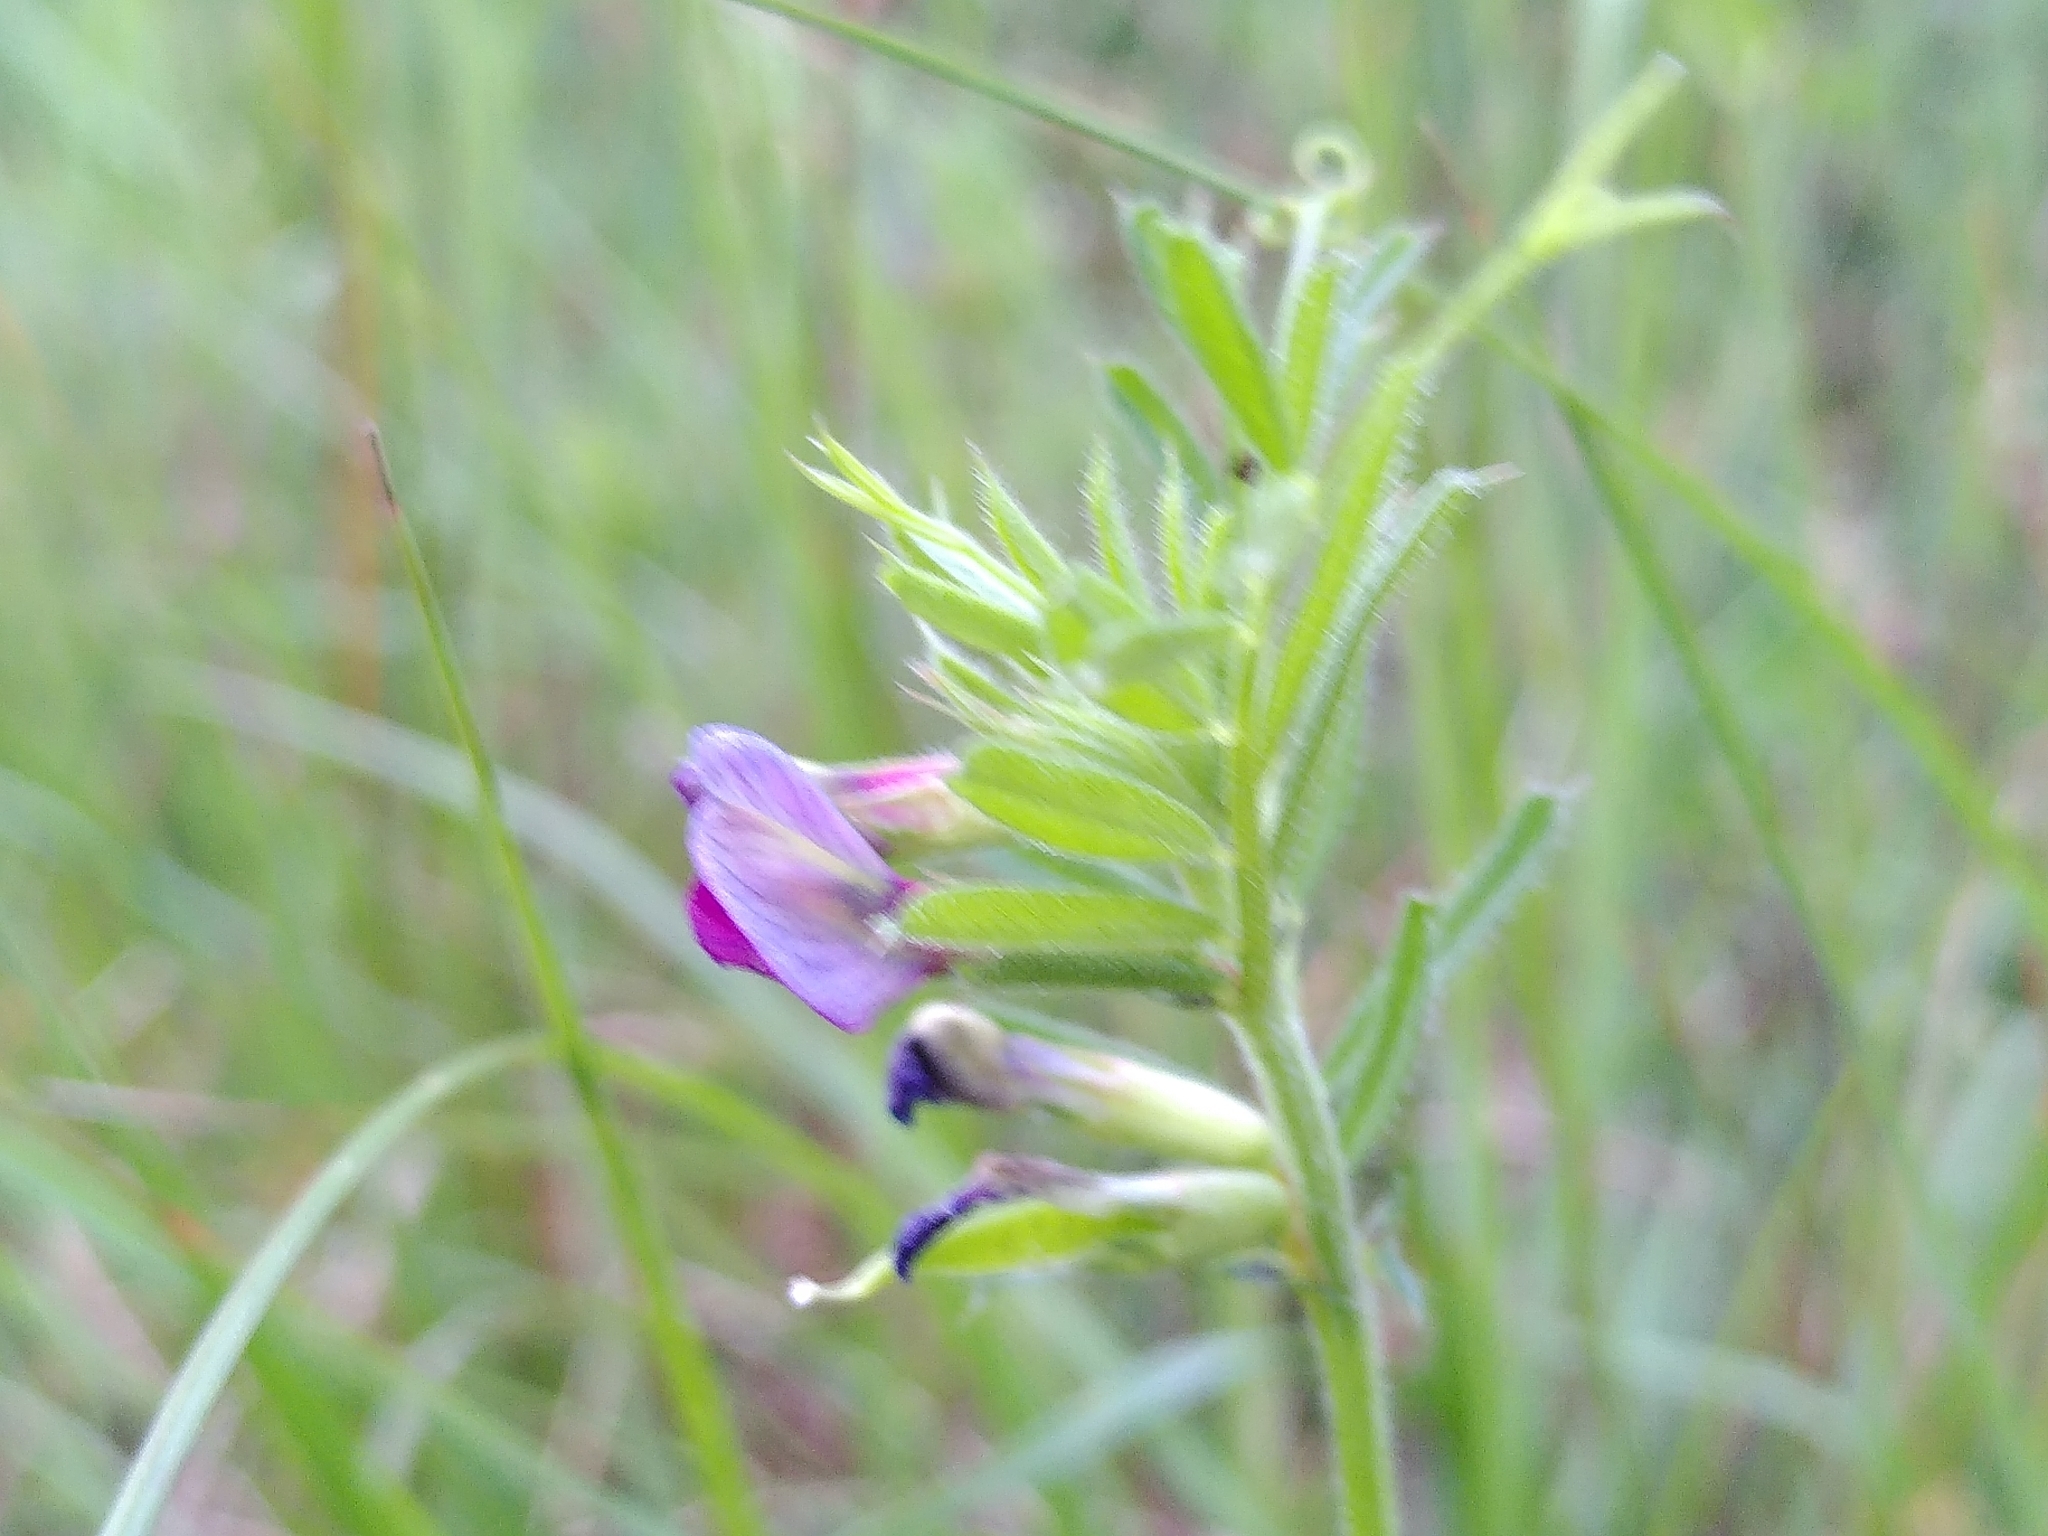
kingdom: Plantae
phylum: Tracheophyta
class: Magnoliopsida
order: Fabales
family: Fabaceae
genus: Vicia
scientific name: Vicia sativa
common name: Garden vetch
